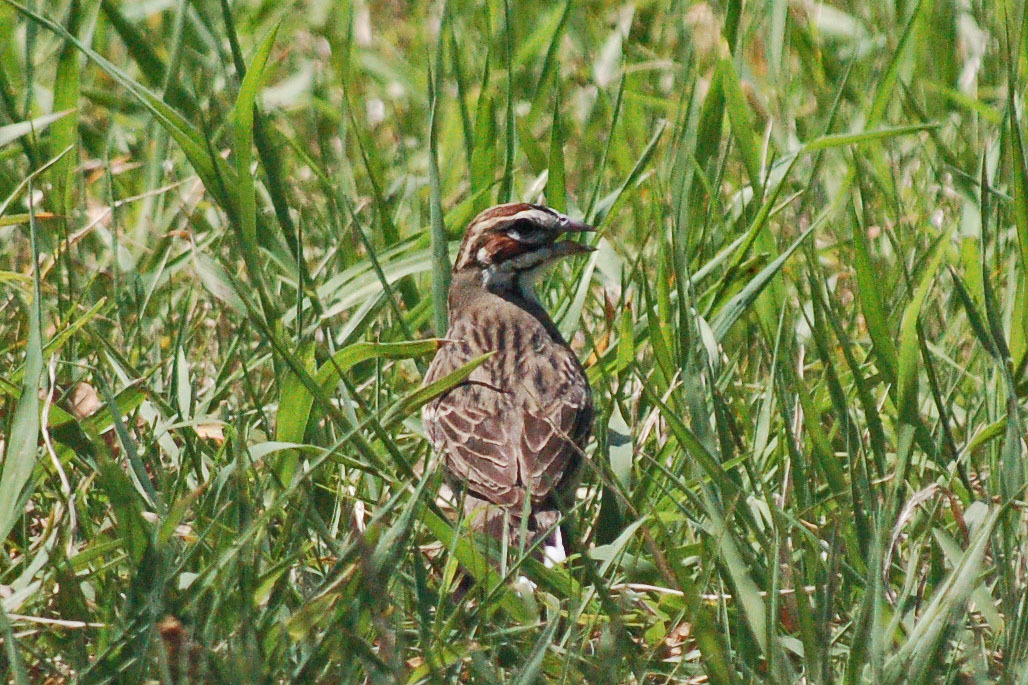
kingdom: Animalia
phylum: Chordata
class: Aves
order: Passeriformes
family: Passerellidae
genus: Chondestes
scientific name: Chondestes grammacus
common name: Lark sparrow
